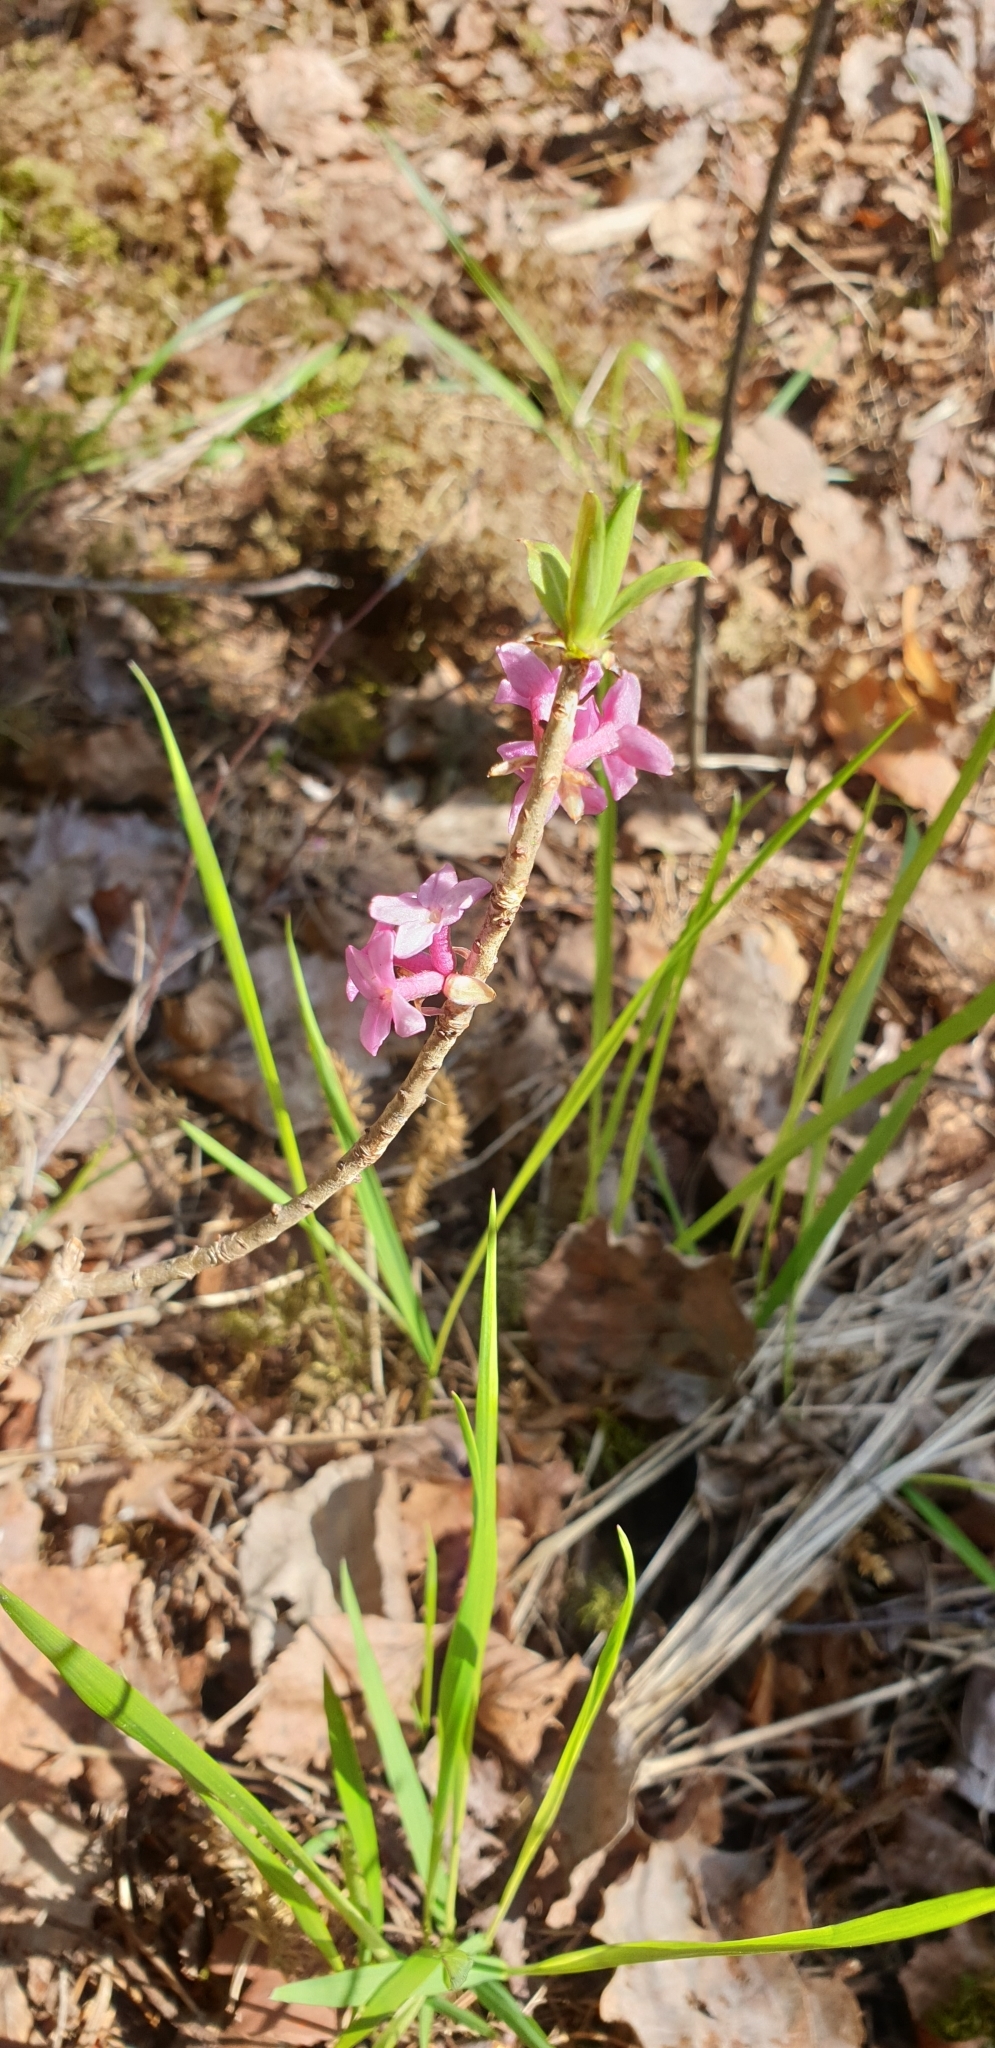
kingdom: Plantae
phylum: Tracheophyta
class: Magnoliopsida
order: Malvales
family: Thymelaeaceae
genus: Daphne
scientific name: Daphne mezereum
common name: Mezereon
